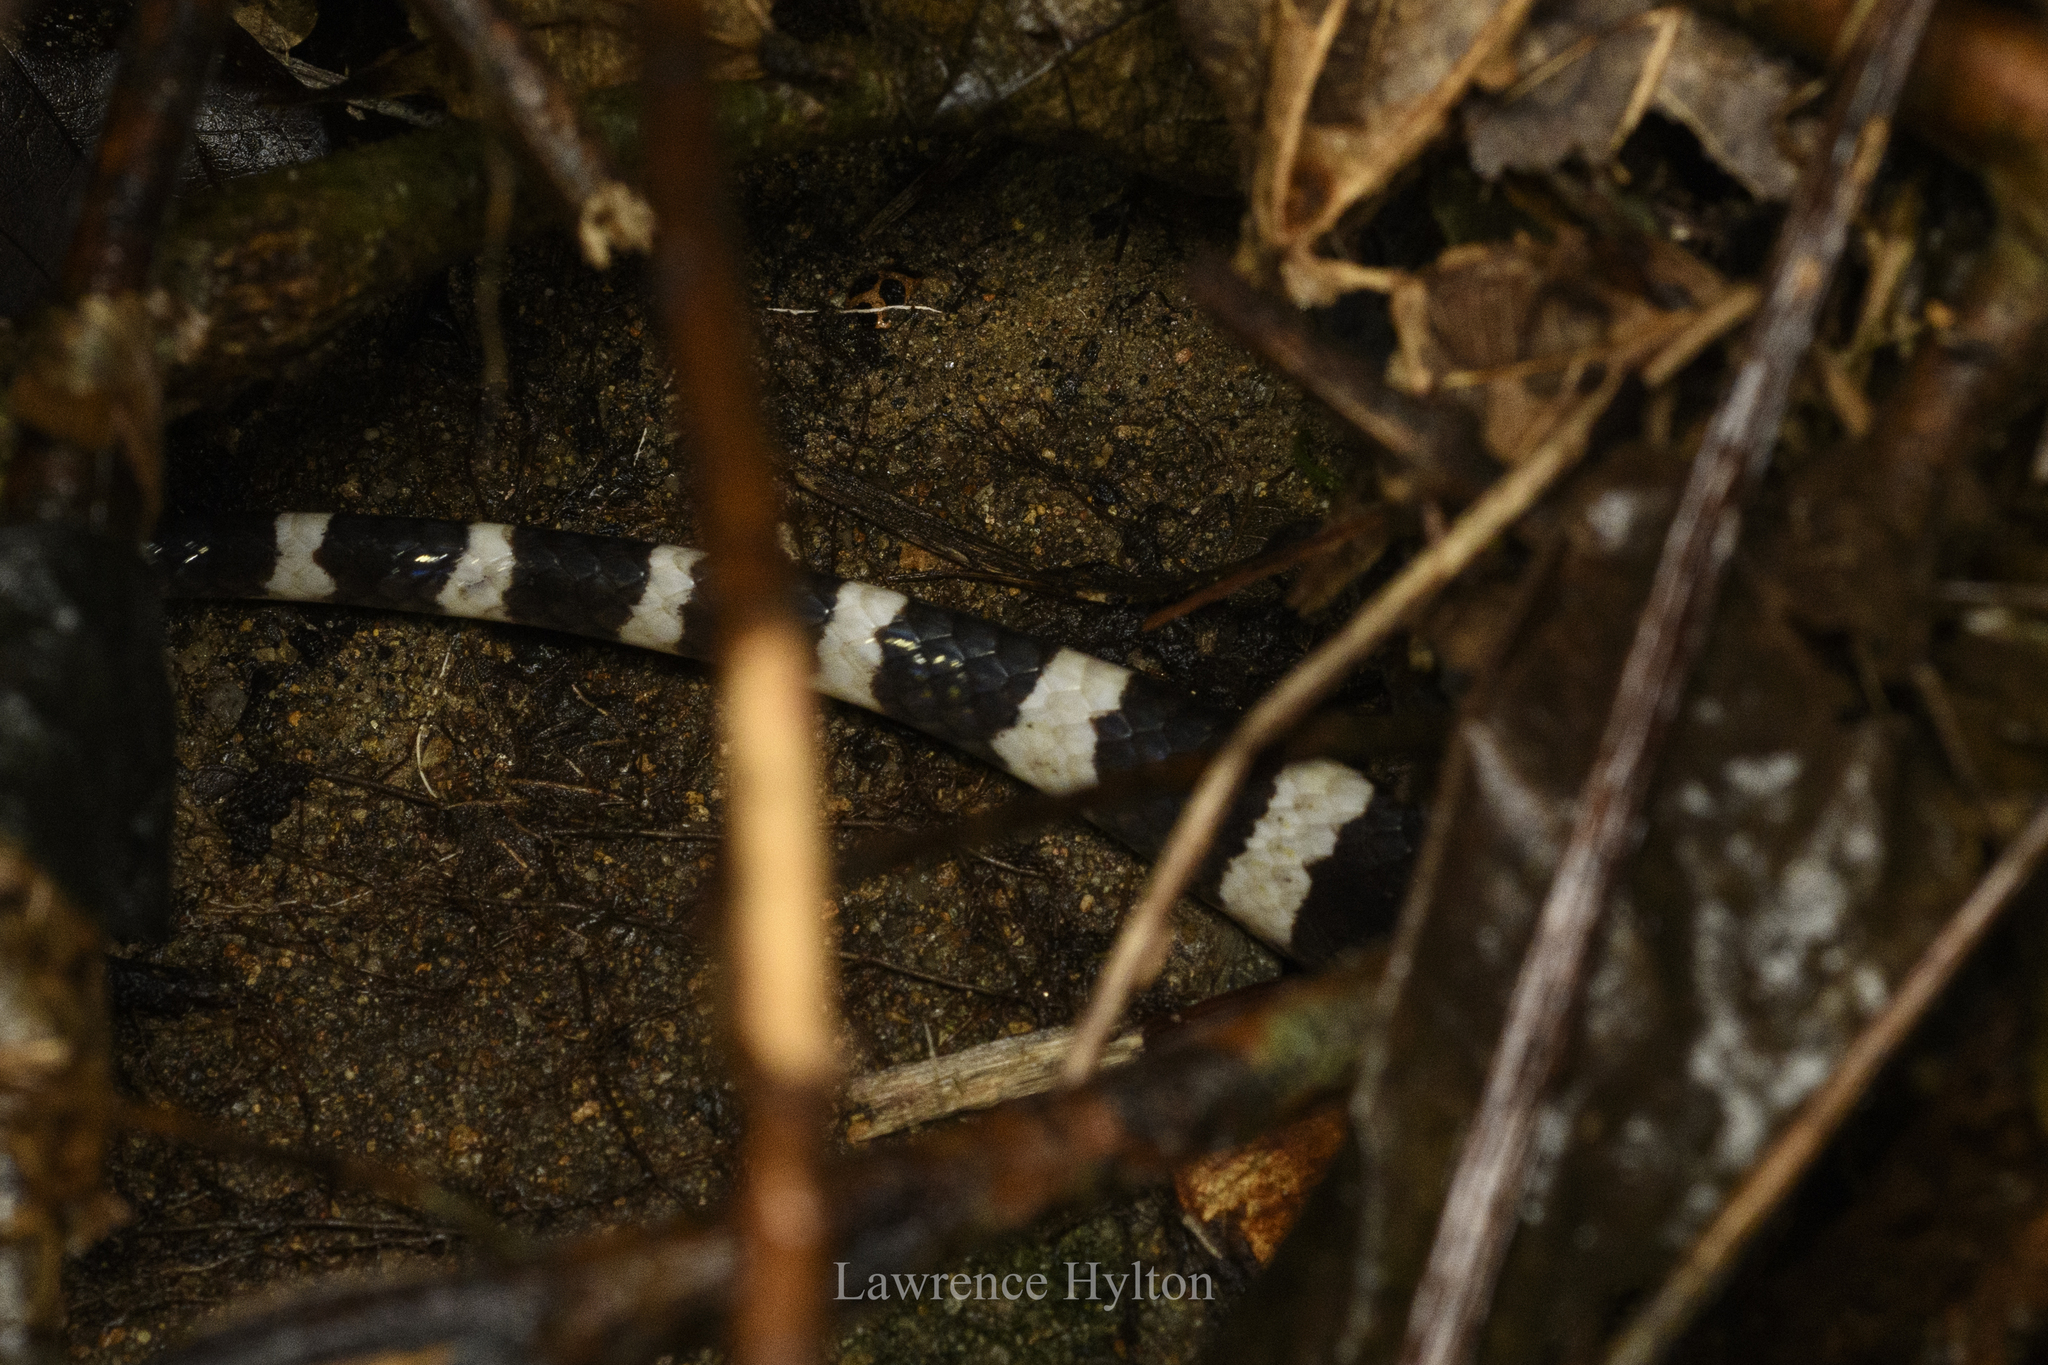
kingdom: Animalia
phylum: Chordata
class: Squamata
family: Elapidae
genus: Bungarus
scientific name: Bungarus multicinctus
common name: Many-banded krait
